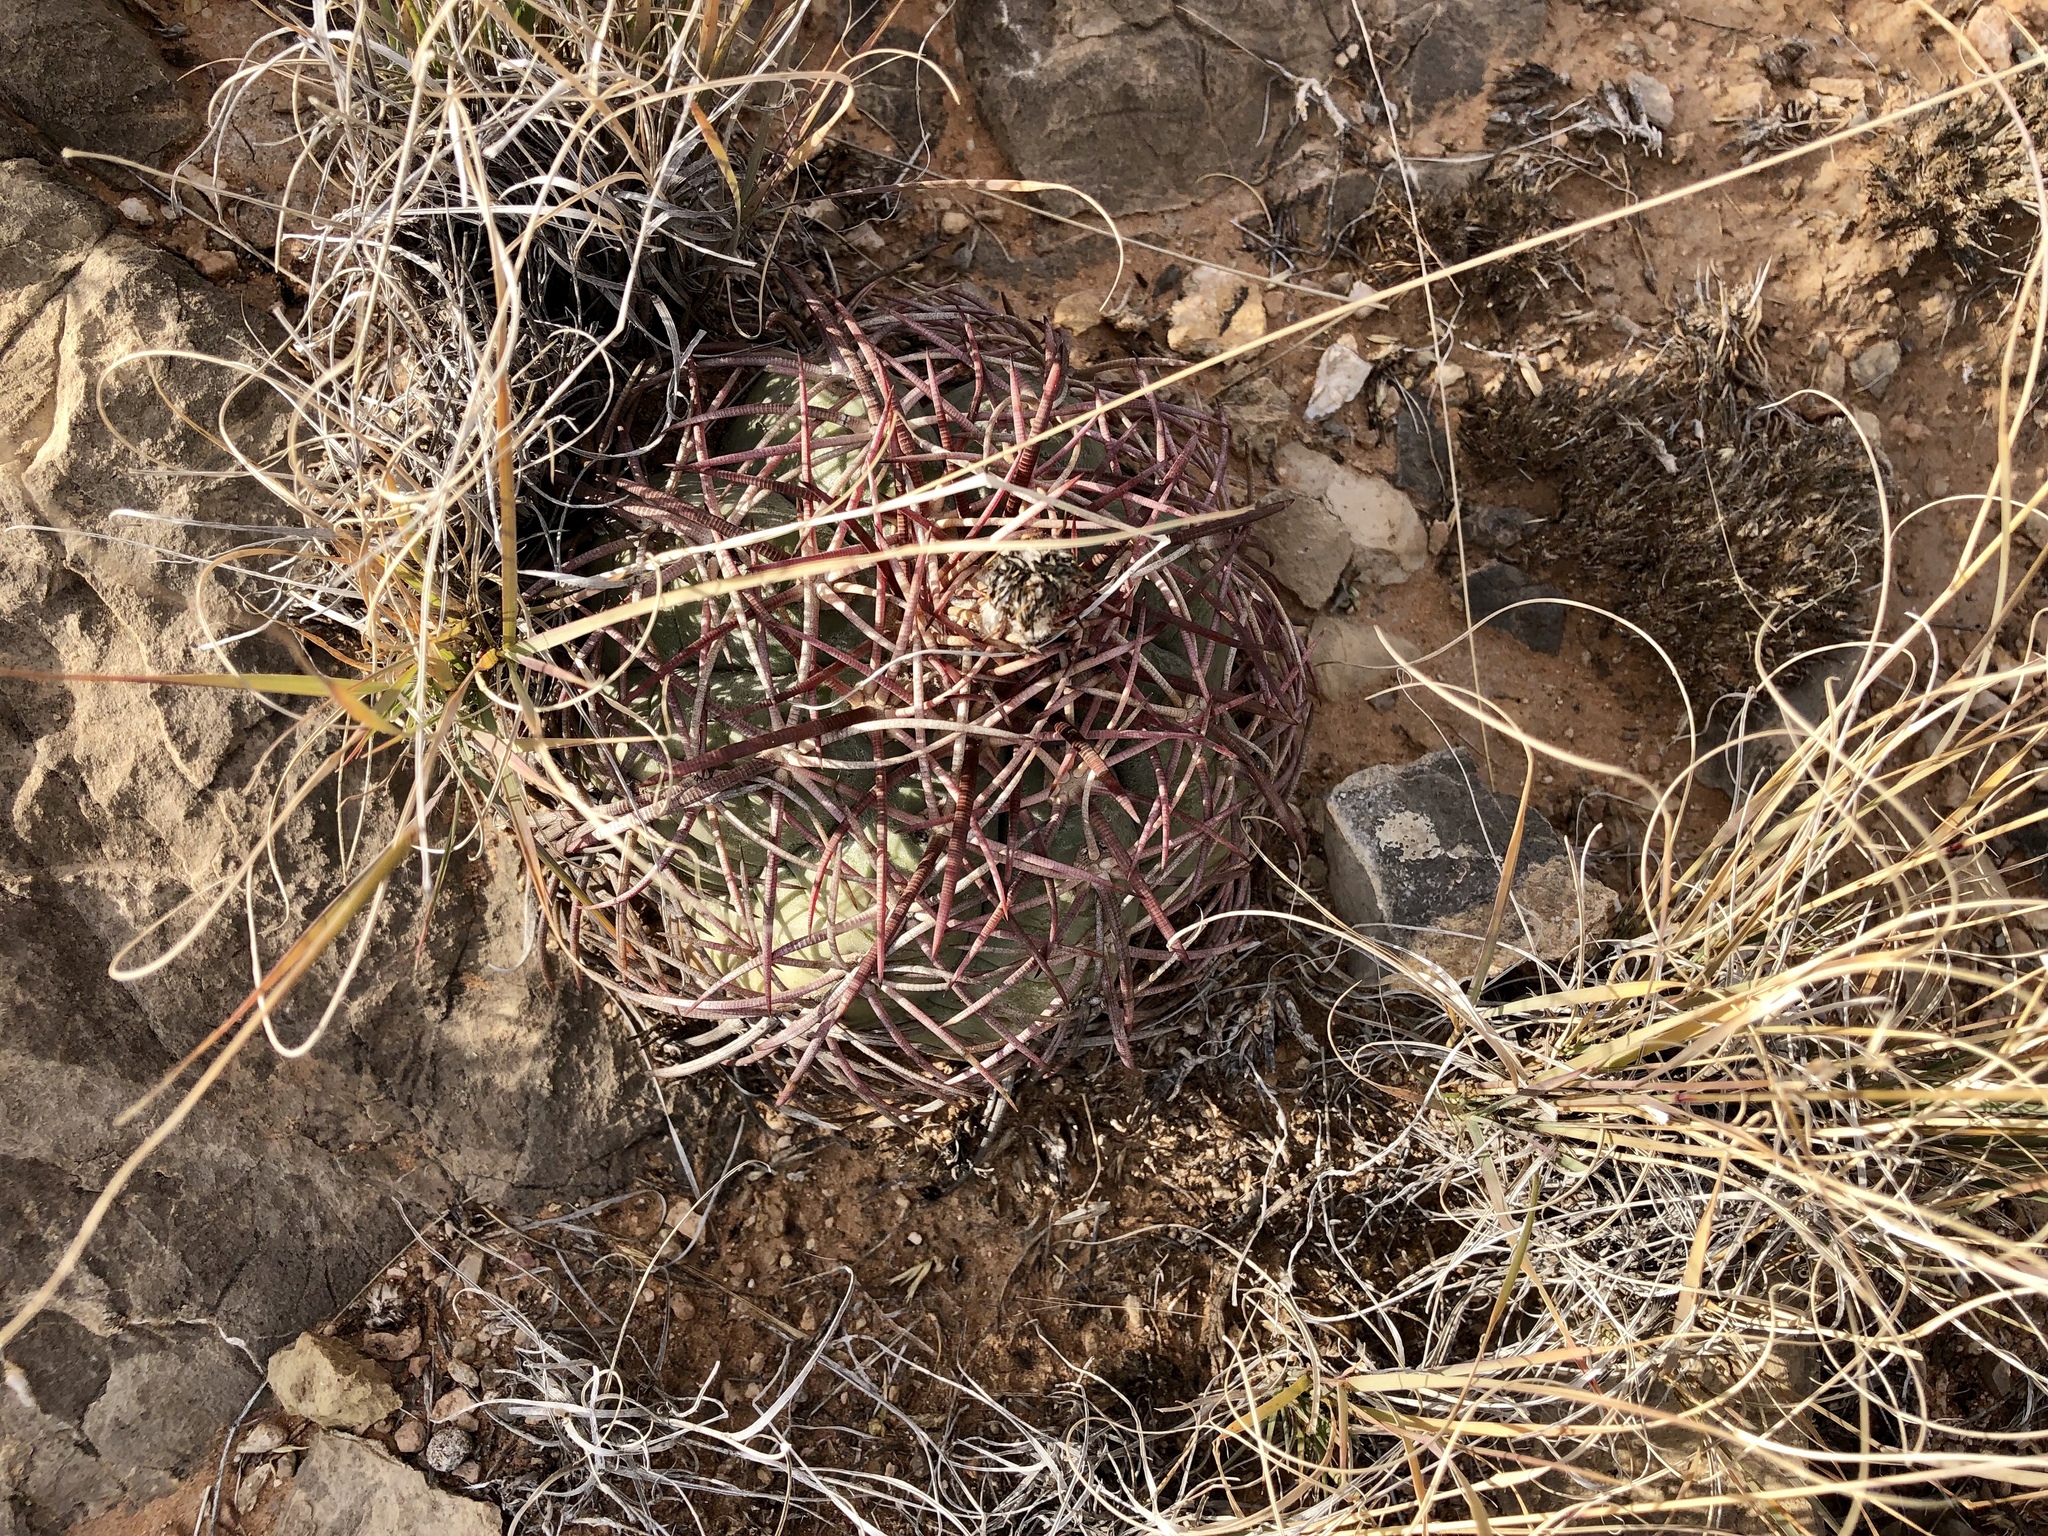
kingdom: Plantae
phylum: Tracheophyta
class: Magnoliopsida
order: Caryophyllales
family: Cactaceae
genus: Echinocactus
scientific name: Echinocactus horizonthalonius
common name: Devilshead
